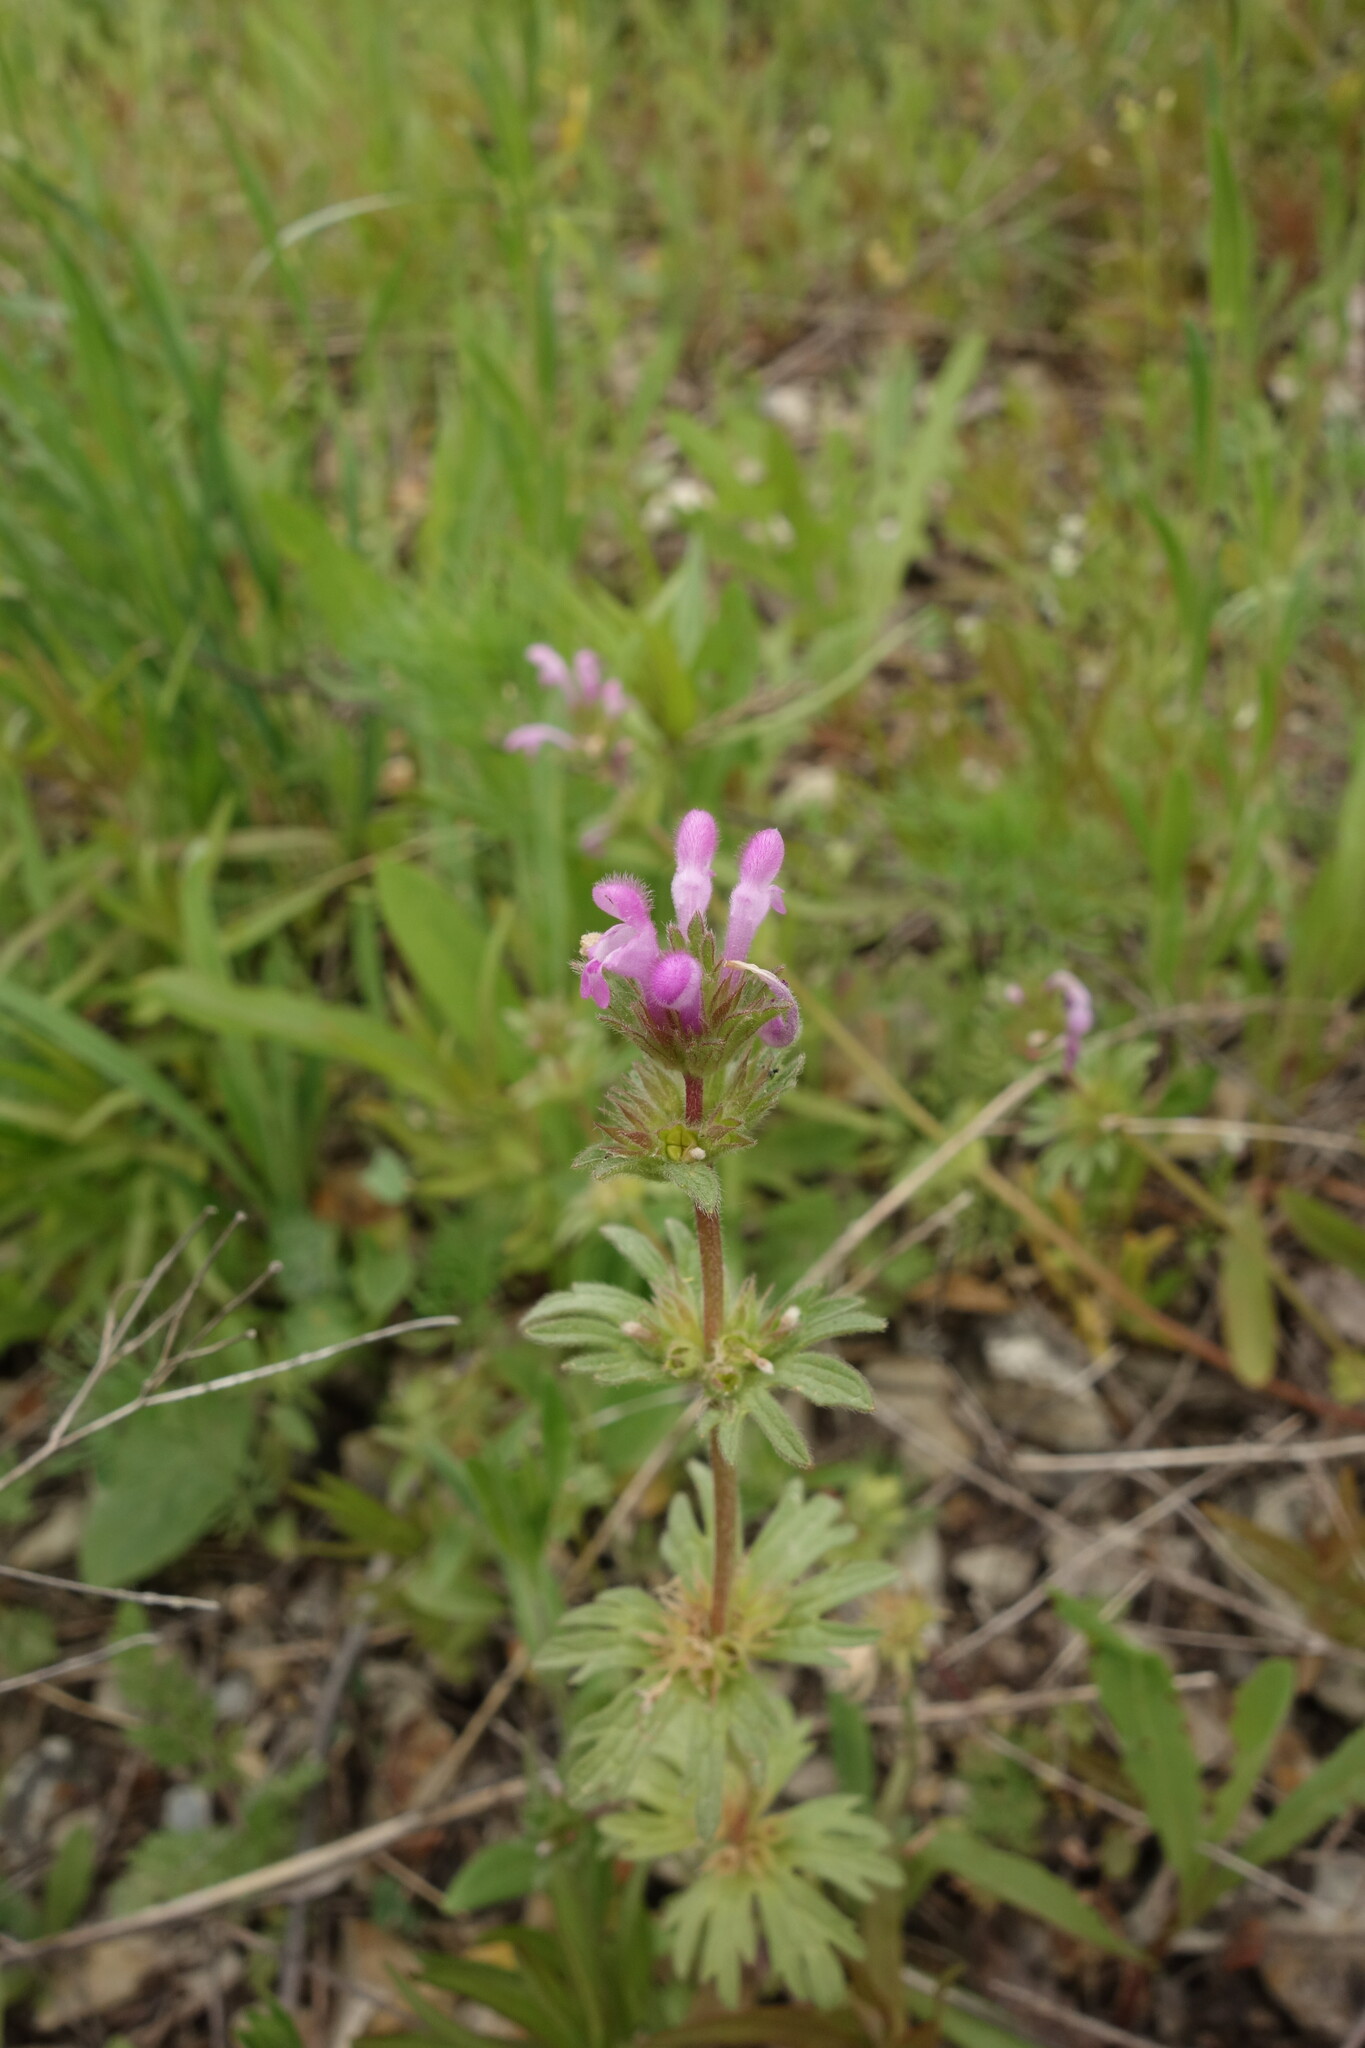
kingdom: Plantae
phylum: Tracheophyta
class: Magnoliopsida
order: Lamiales
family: Lamiaceae
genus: Lamium
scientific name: Lamium amplexicaule
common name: Henbit dead-nettle
